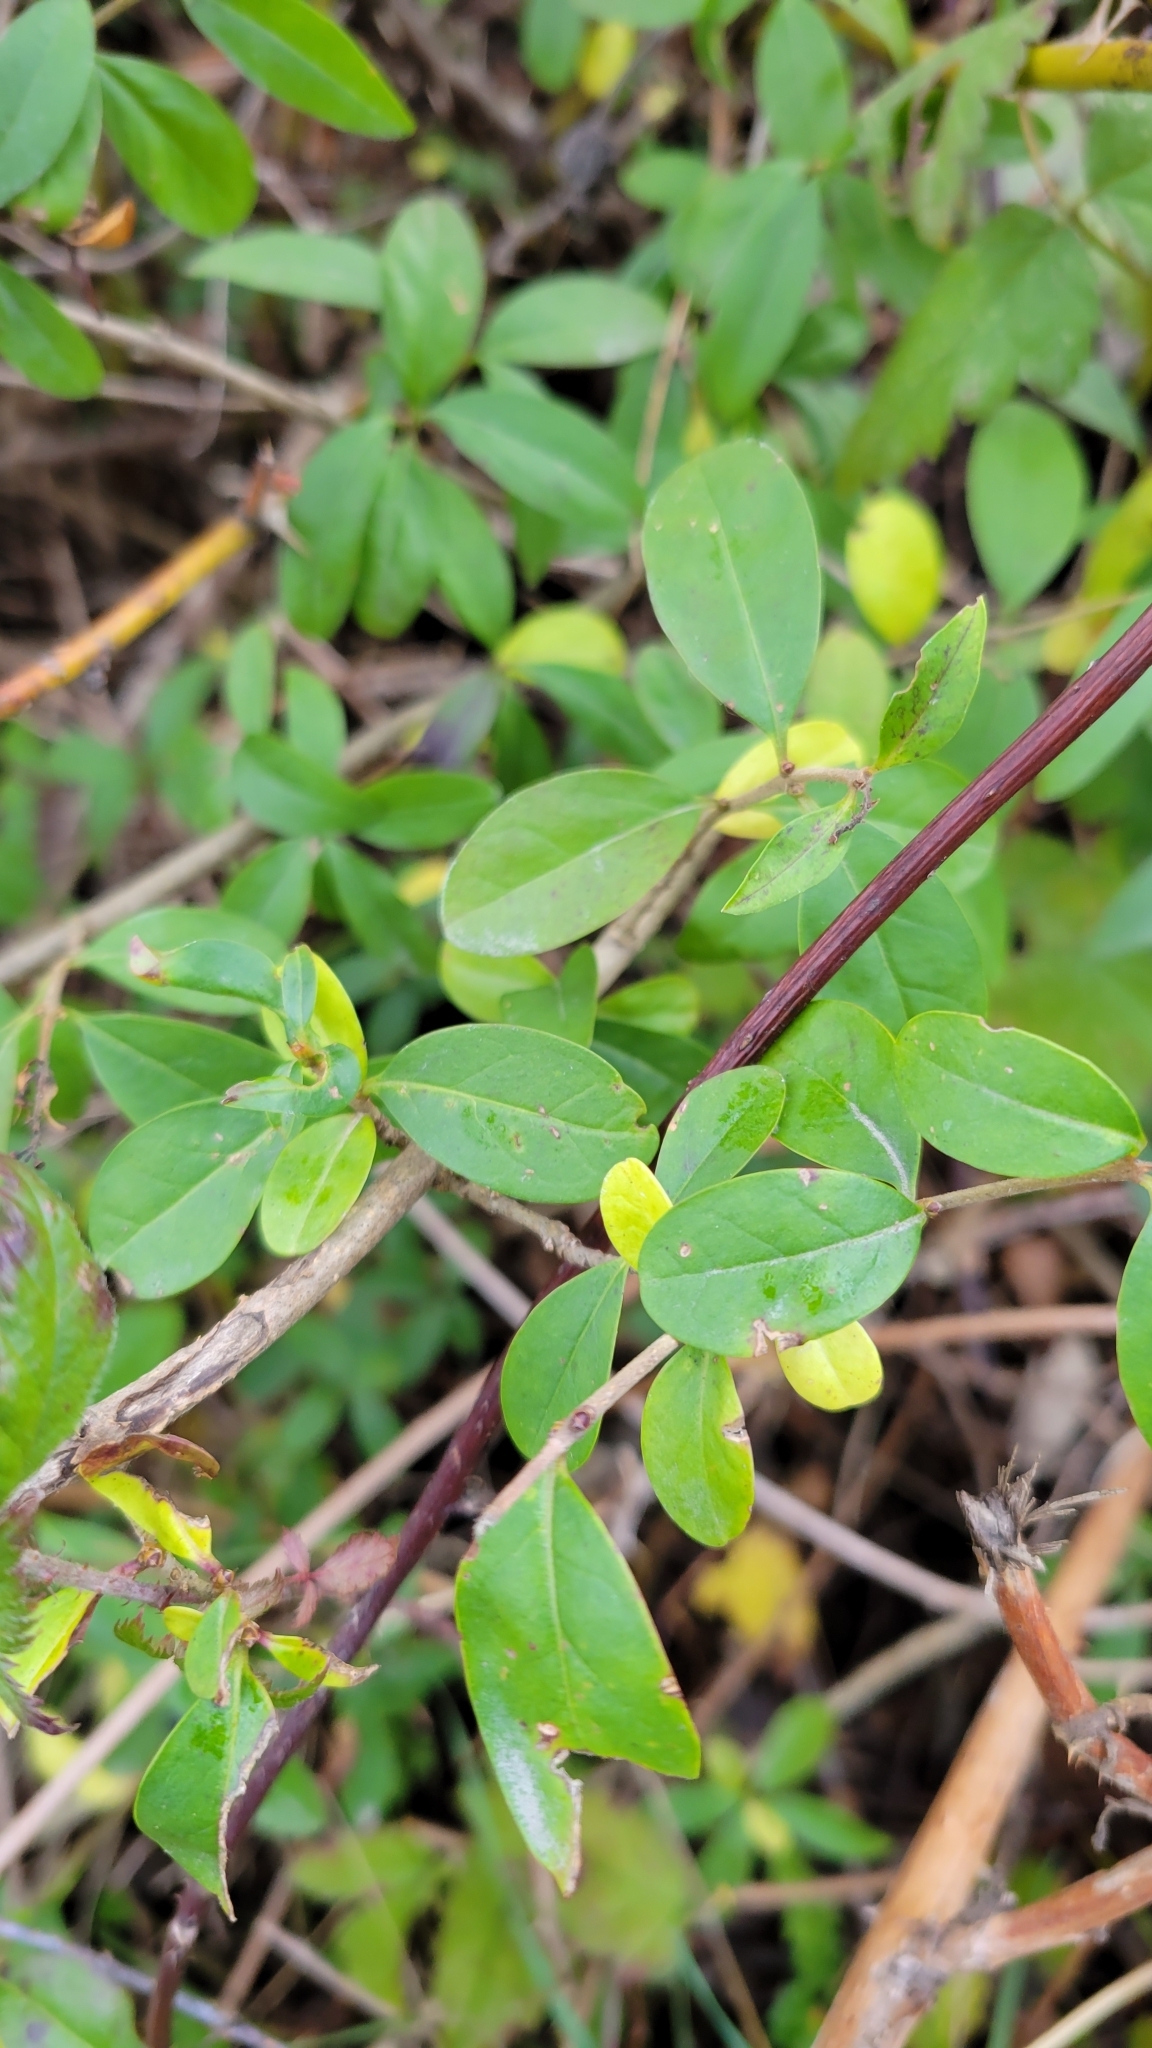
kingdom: Plantae
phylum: Tracheophyta
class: Magnoliopsida
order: Lamiales
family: Oleaceae
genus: Ligustrum
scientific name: Ligustrum vulgare
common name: Wild privet
